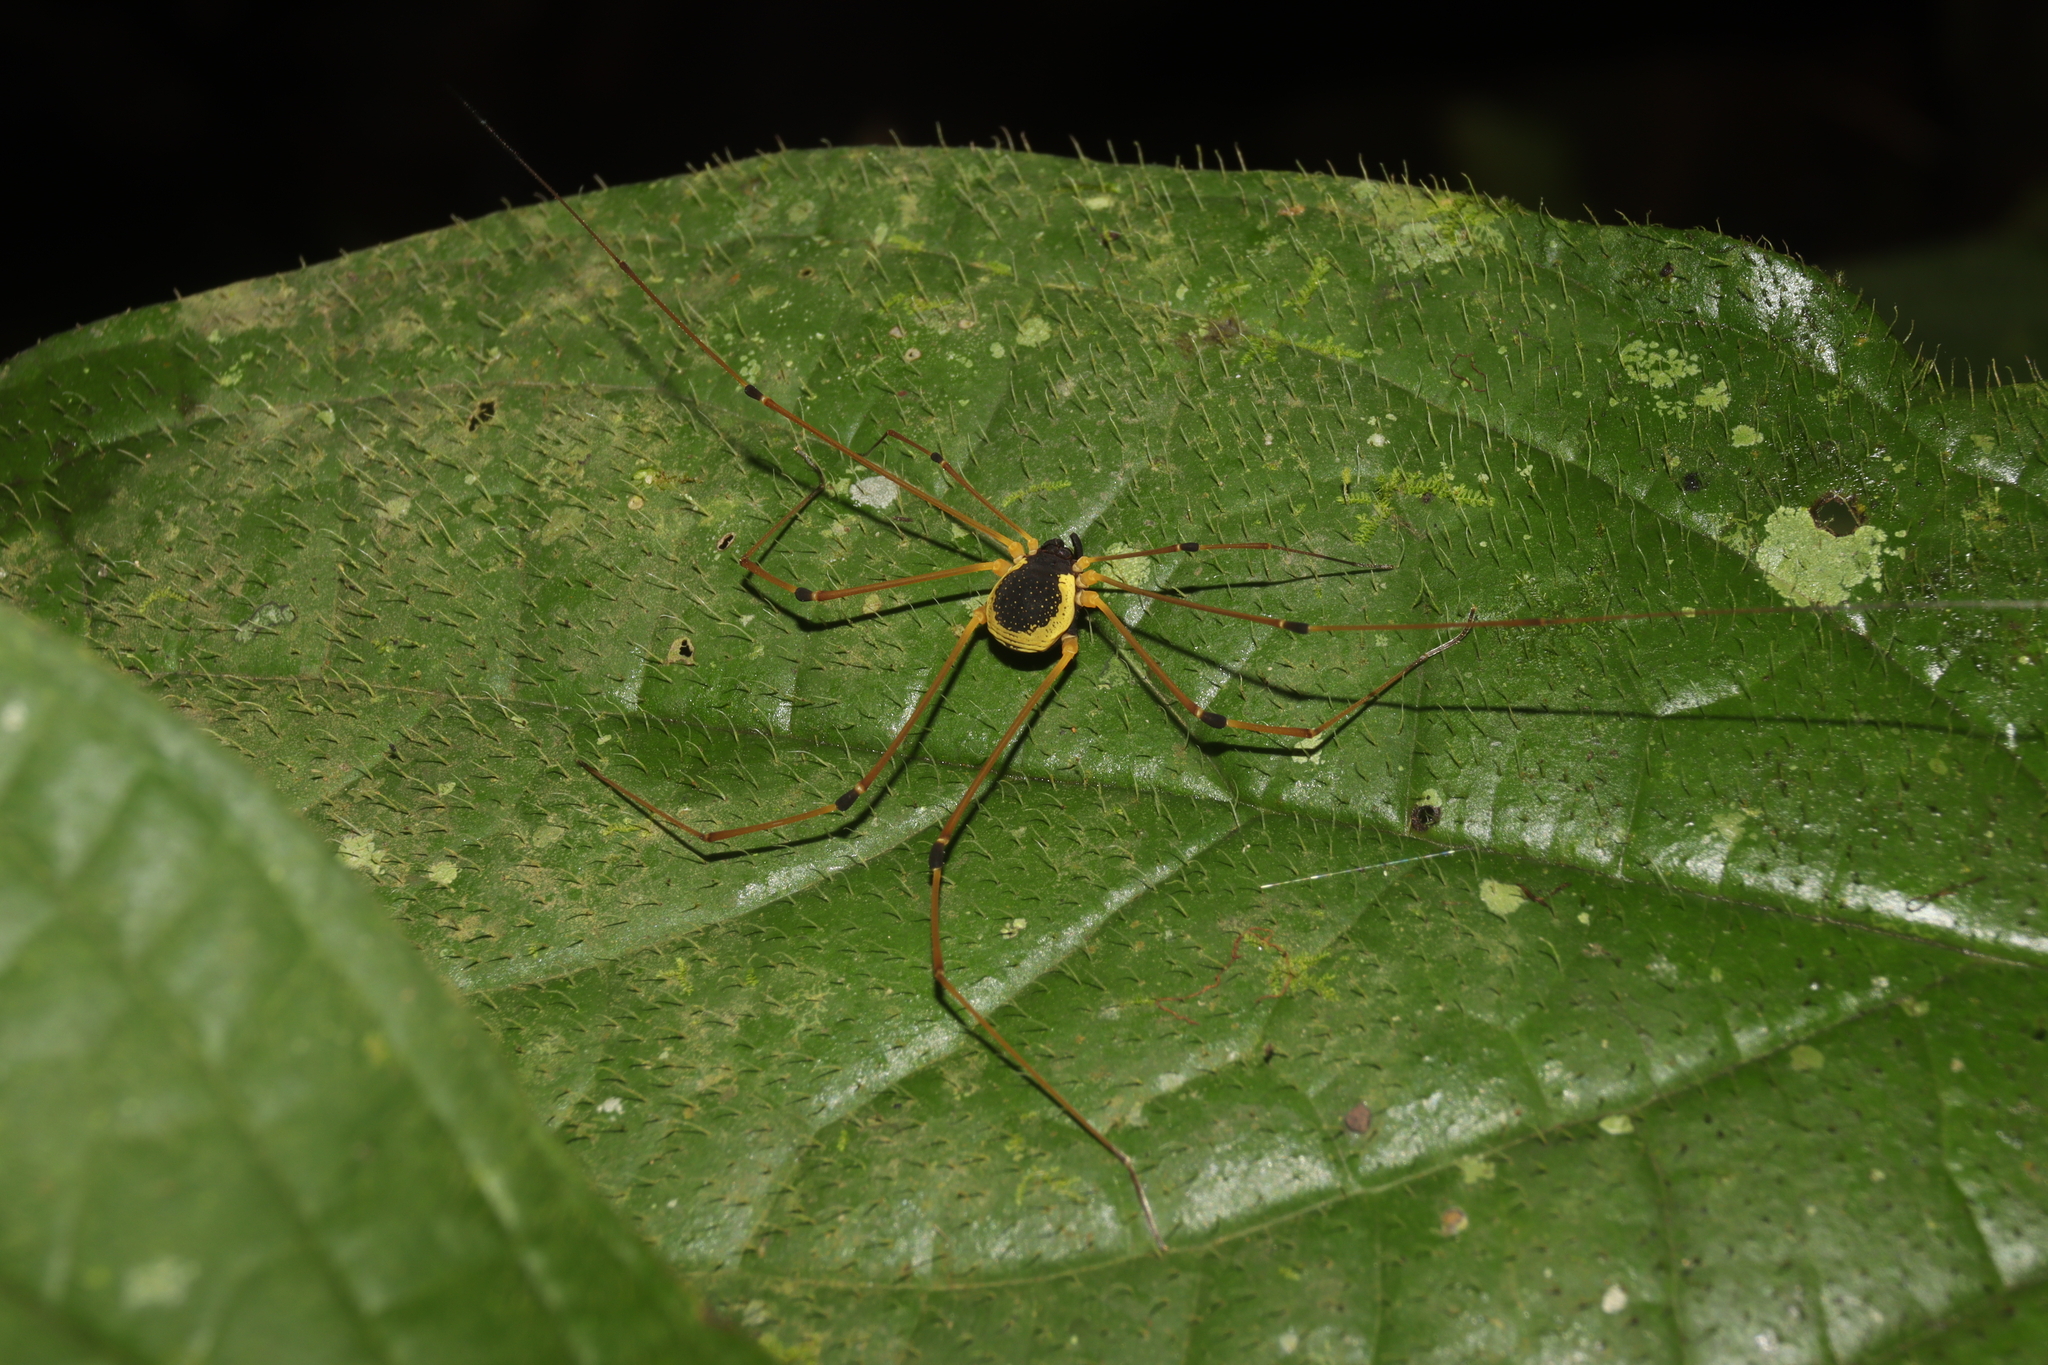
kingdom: Animalia
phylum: Arthropoda
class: Arachnida
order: Opiliones
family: Cosmetidae
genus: Soaresella
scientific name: Soaresella gracilis
